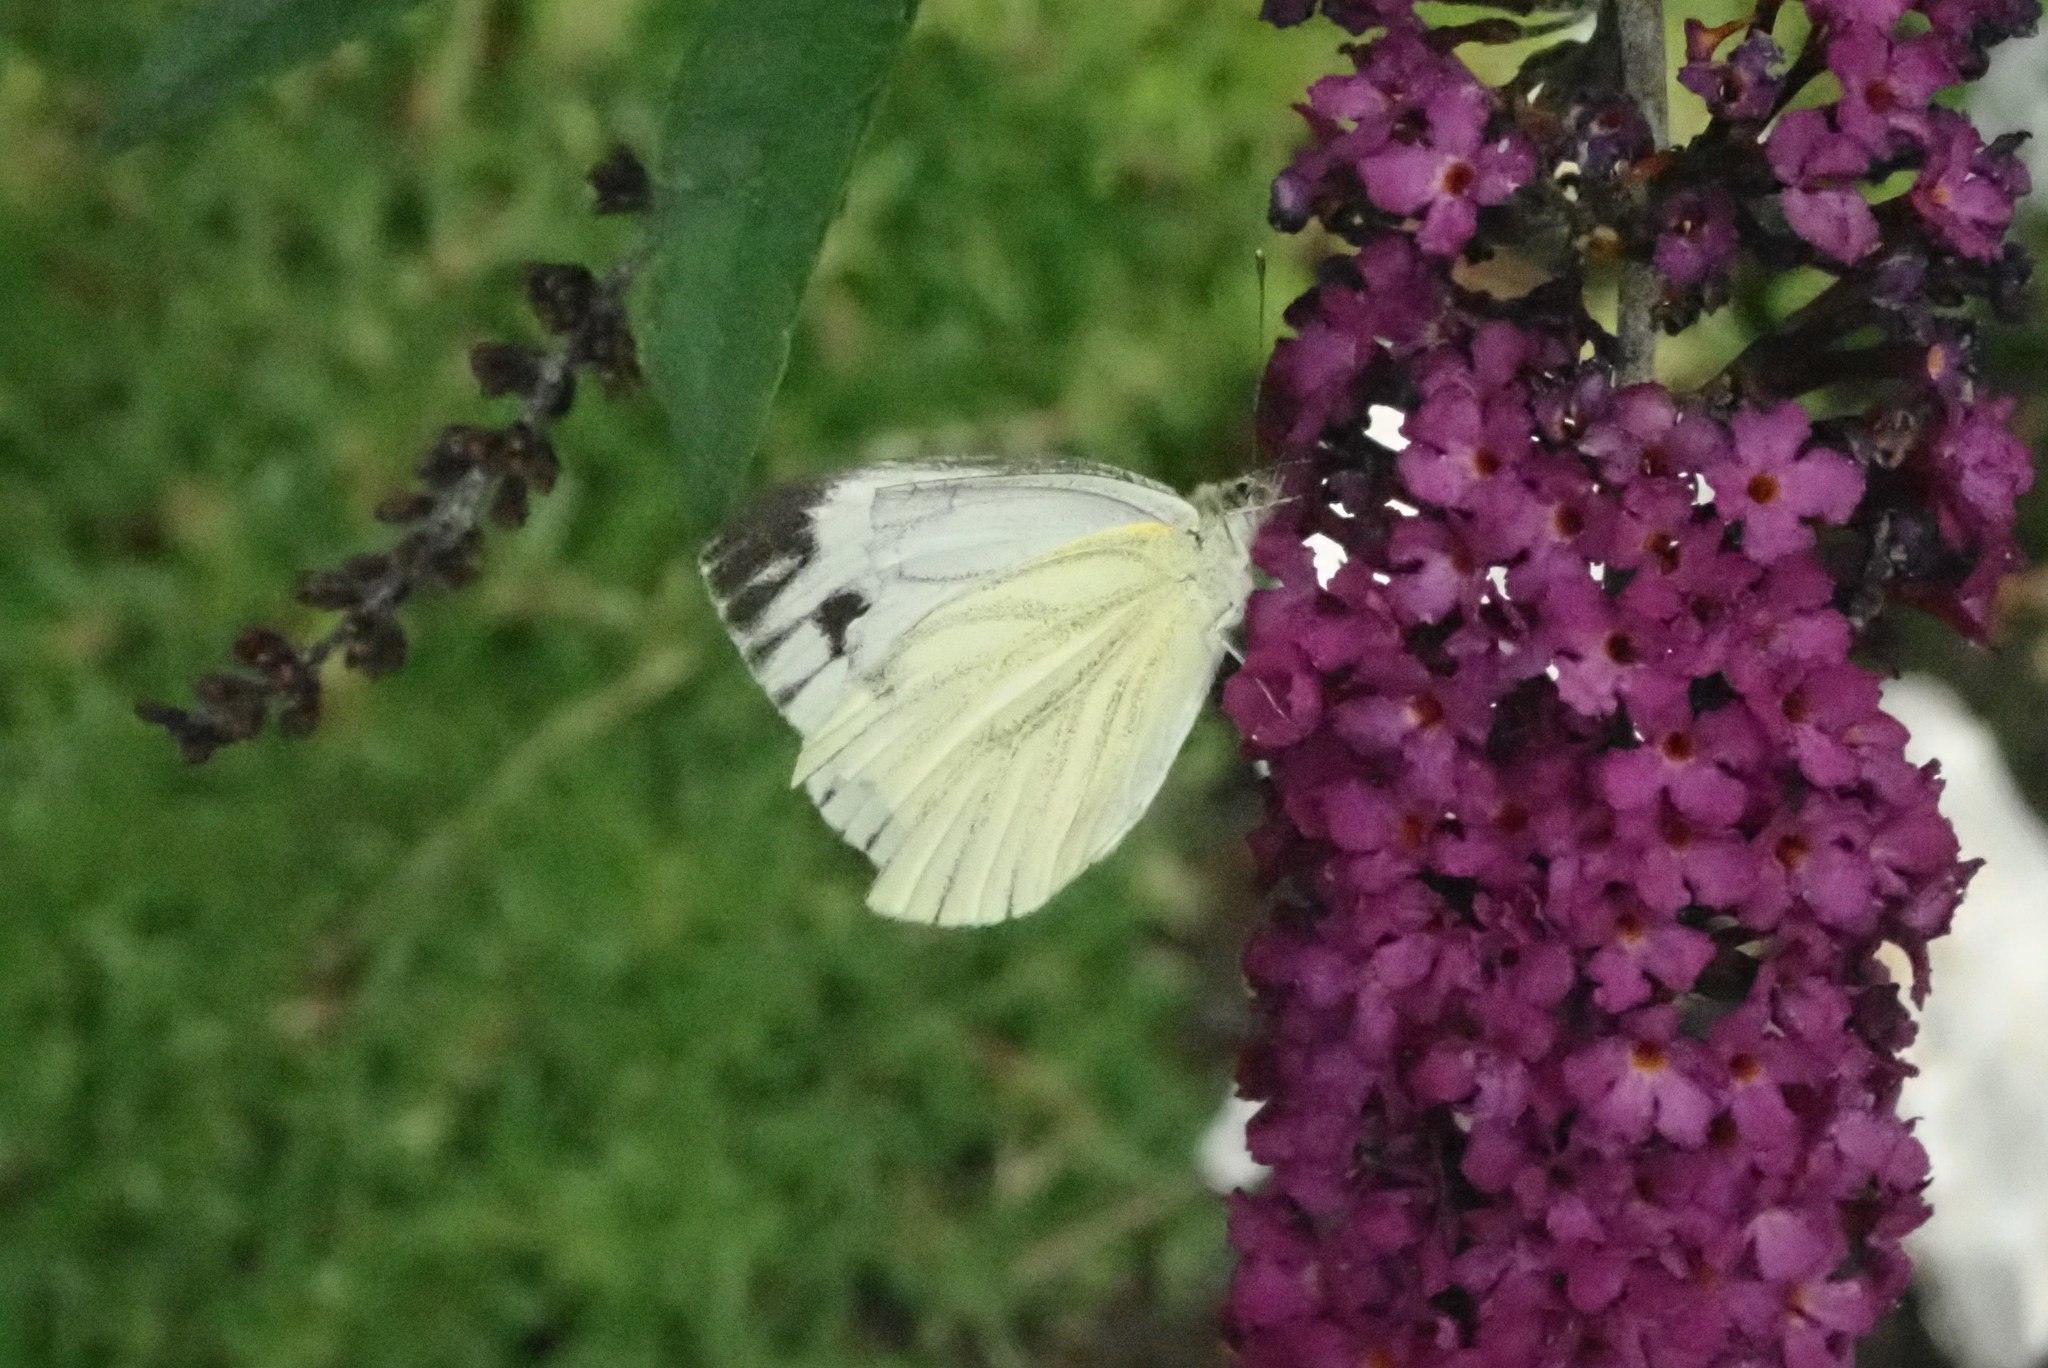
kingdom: Animalia
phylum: Arthropoda
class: Insecta
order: Lepidoptera
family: Pieridae
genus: Pieris
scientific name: Pieris napi
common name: Green-veined white
